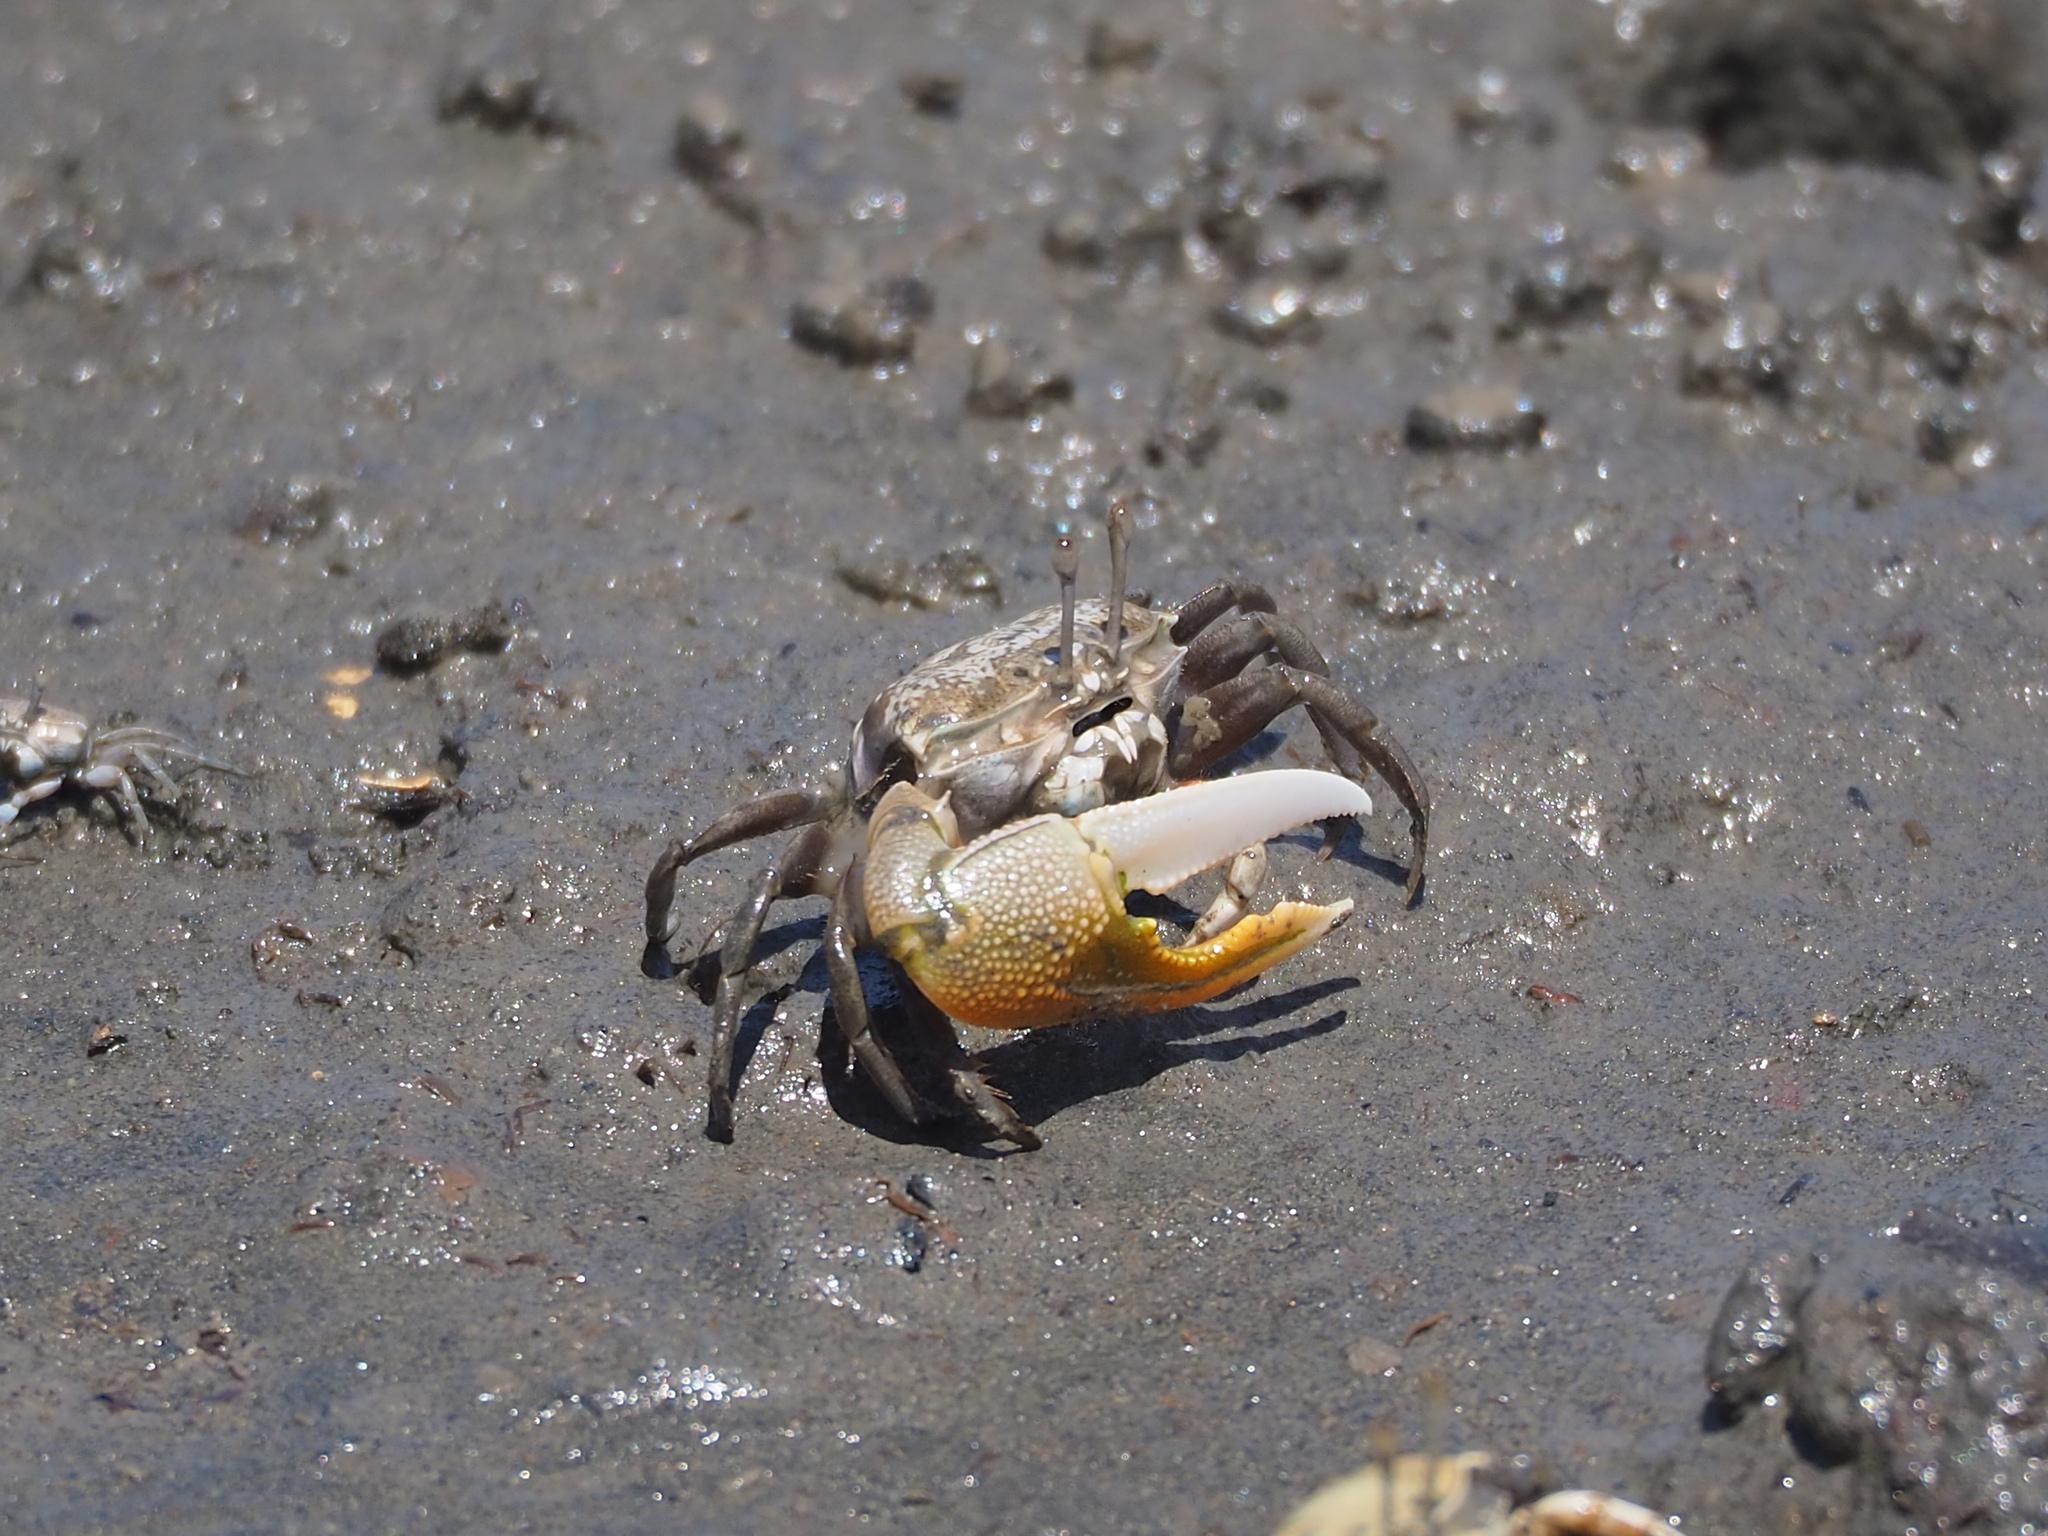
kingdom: Animalia
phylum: Arthropoda
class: Malacostraca
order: Decapoda
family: Ocypodidae
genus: Gelasimus
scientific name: Gelasimus borealis
